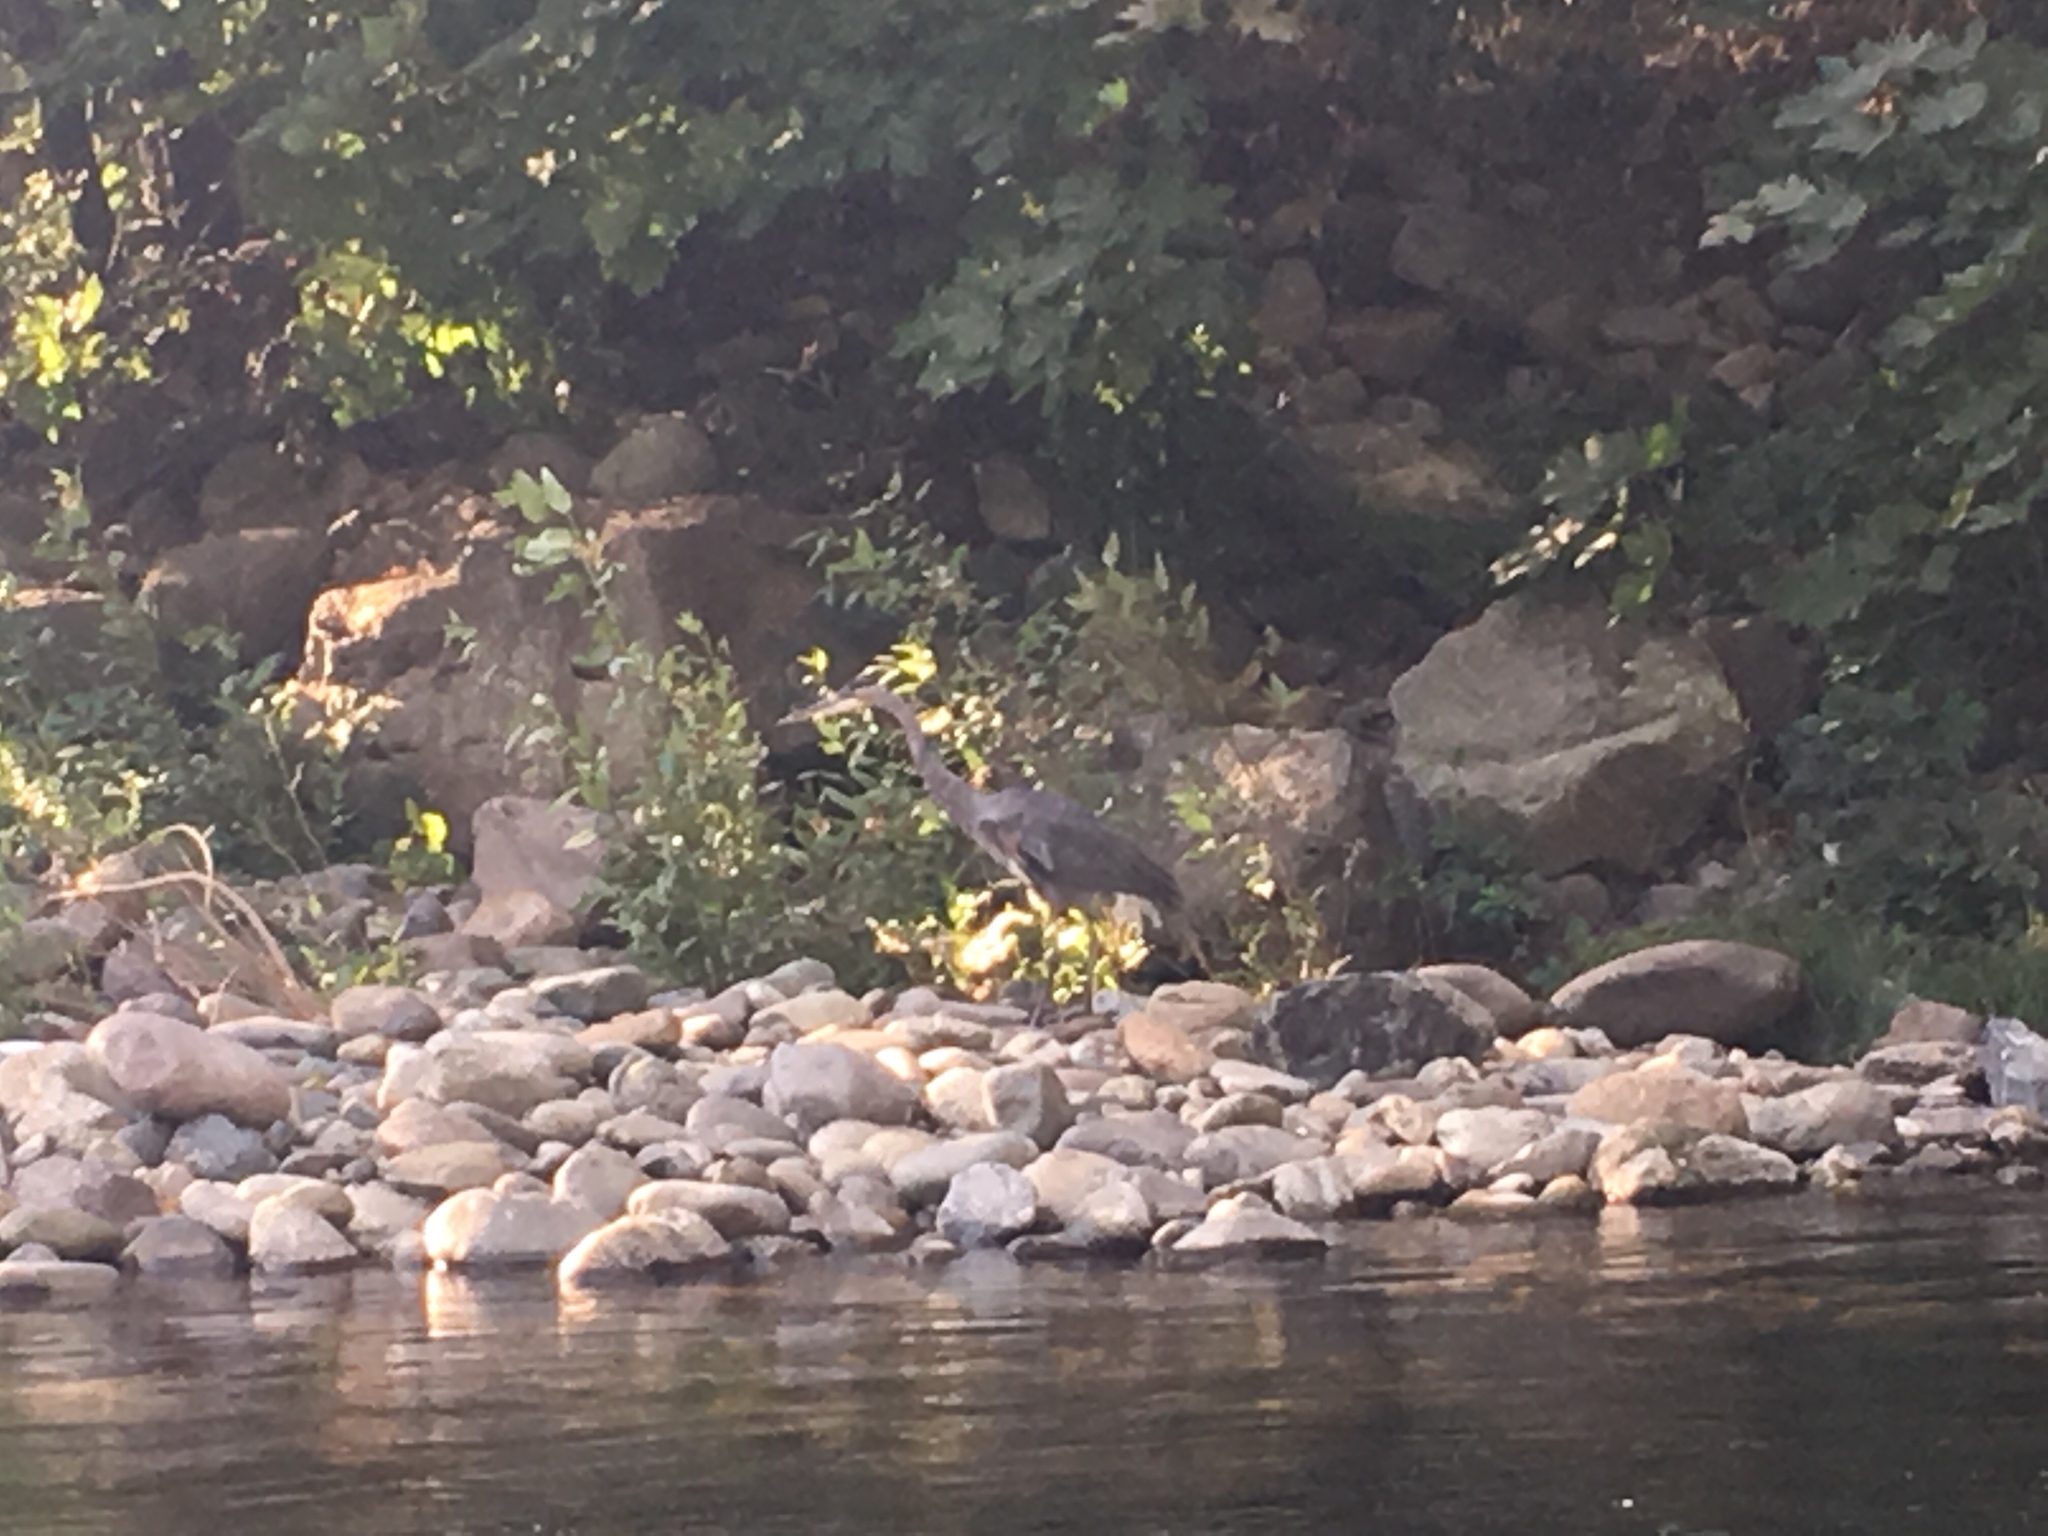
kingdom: Animalia
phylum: Chordata
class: Aves
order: Pelecaniformes
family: Ardeidae
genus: Ardea
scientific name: Ardea herodias
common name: Great blue heron
